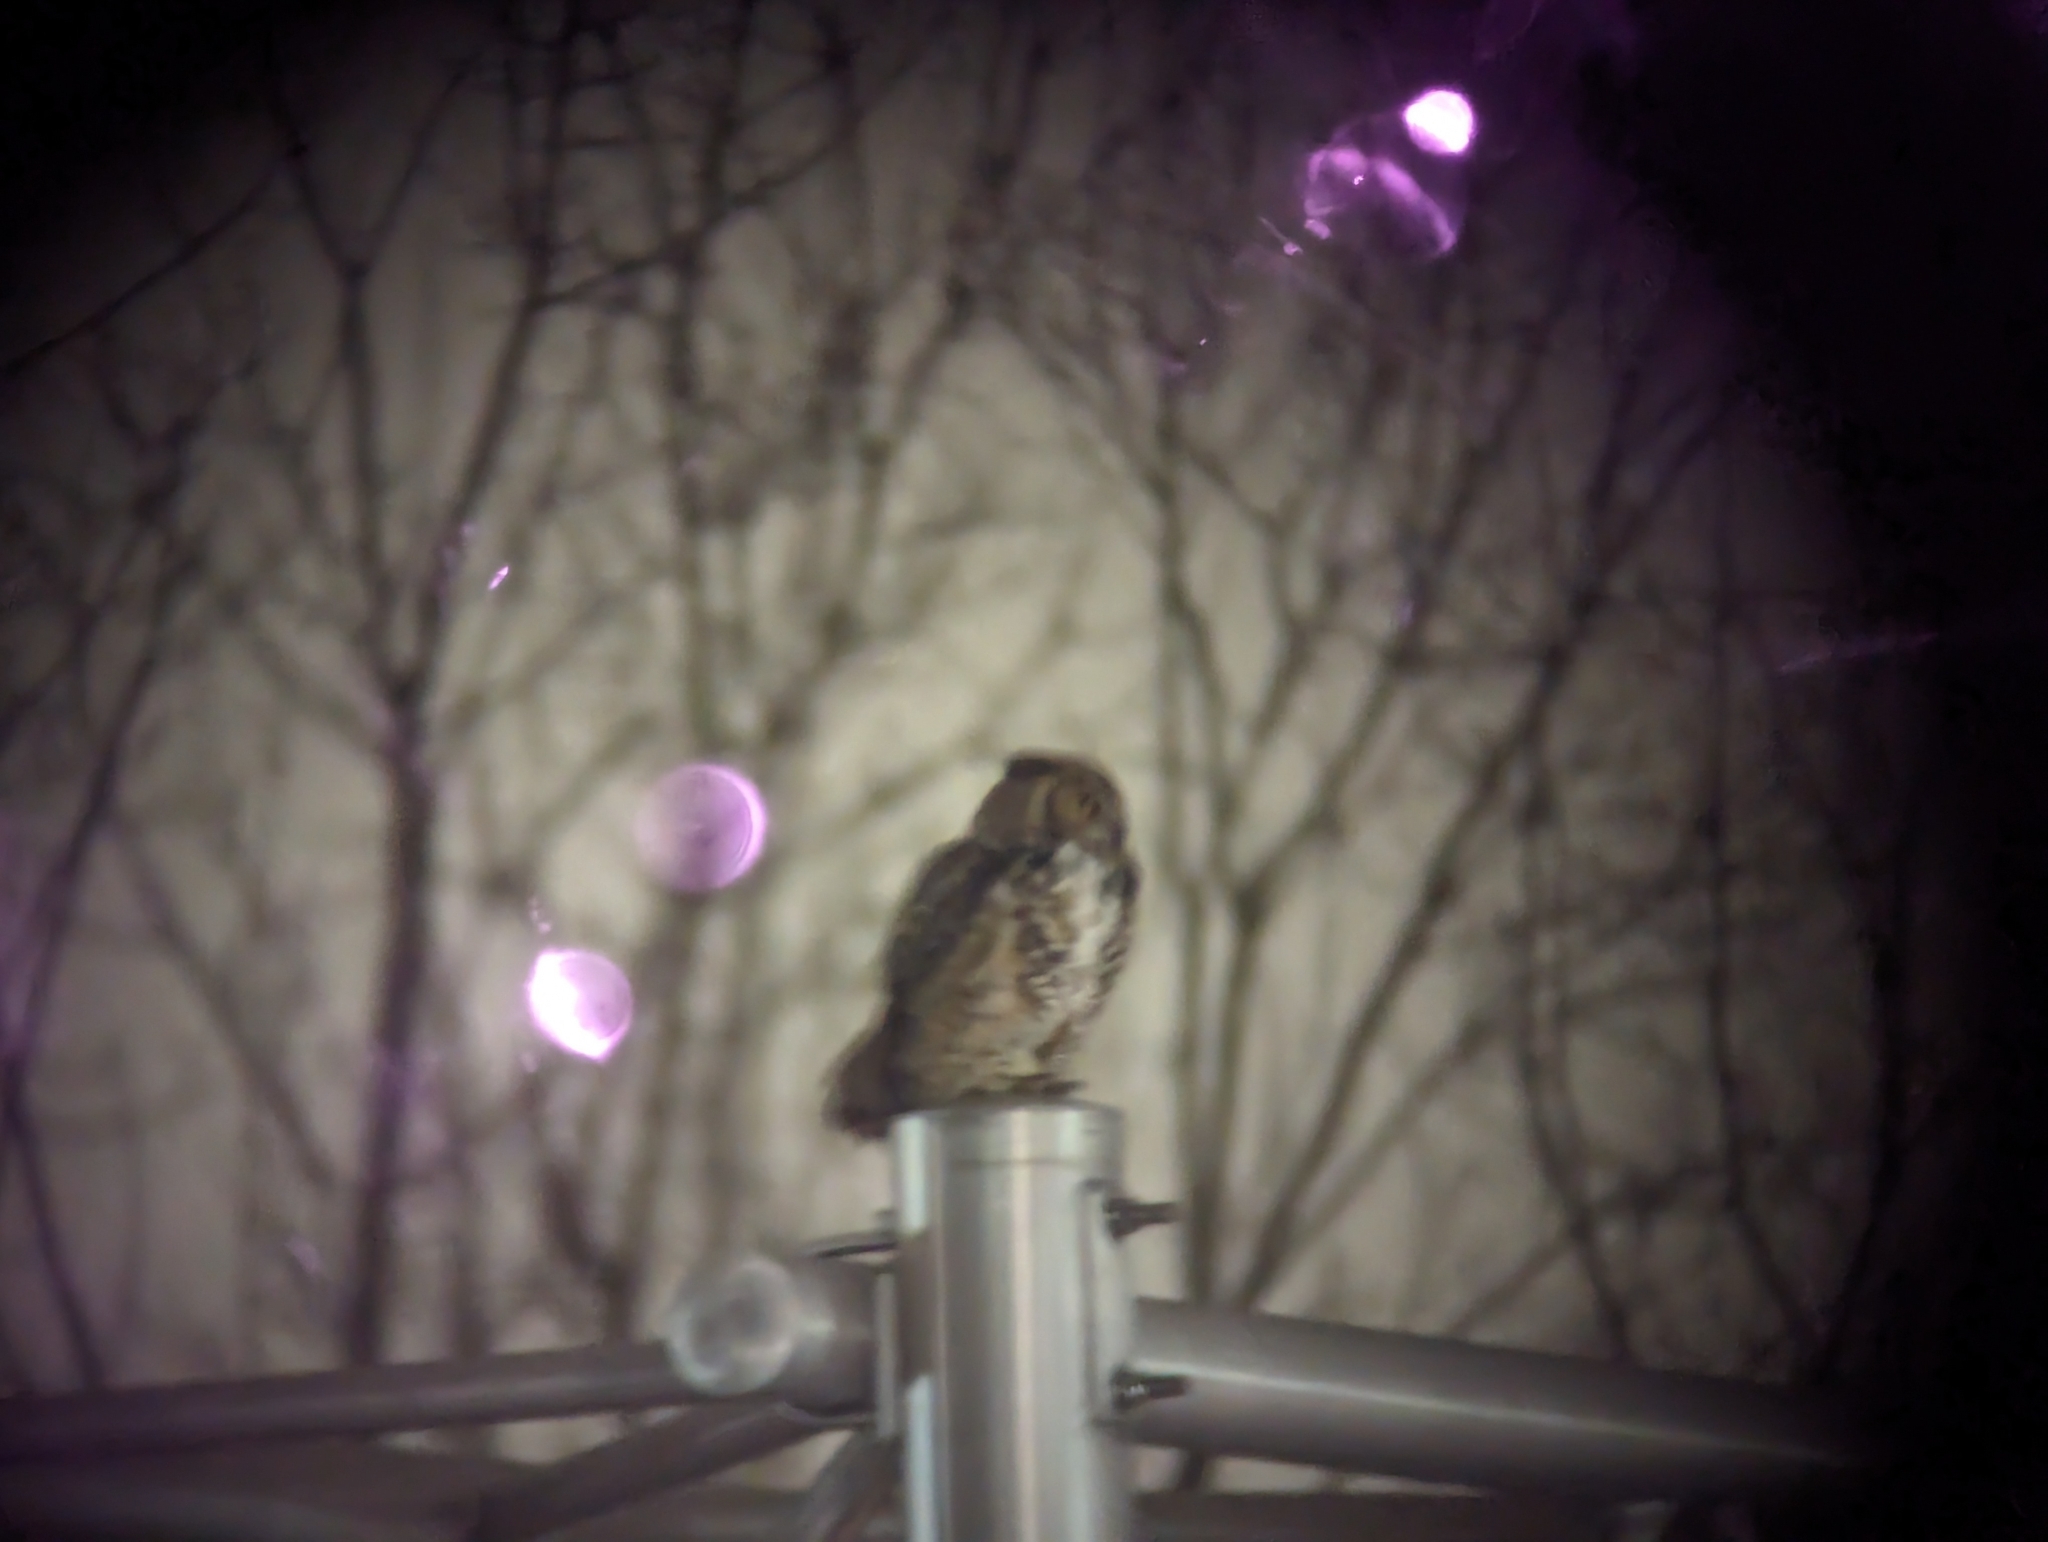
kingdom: Animalia
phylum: Chordata
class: Aves
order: Strigiformes
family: Strigidae
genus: Bubo
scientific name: Bubo virginianus
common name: Great horned owl
